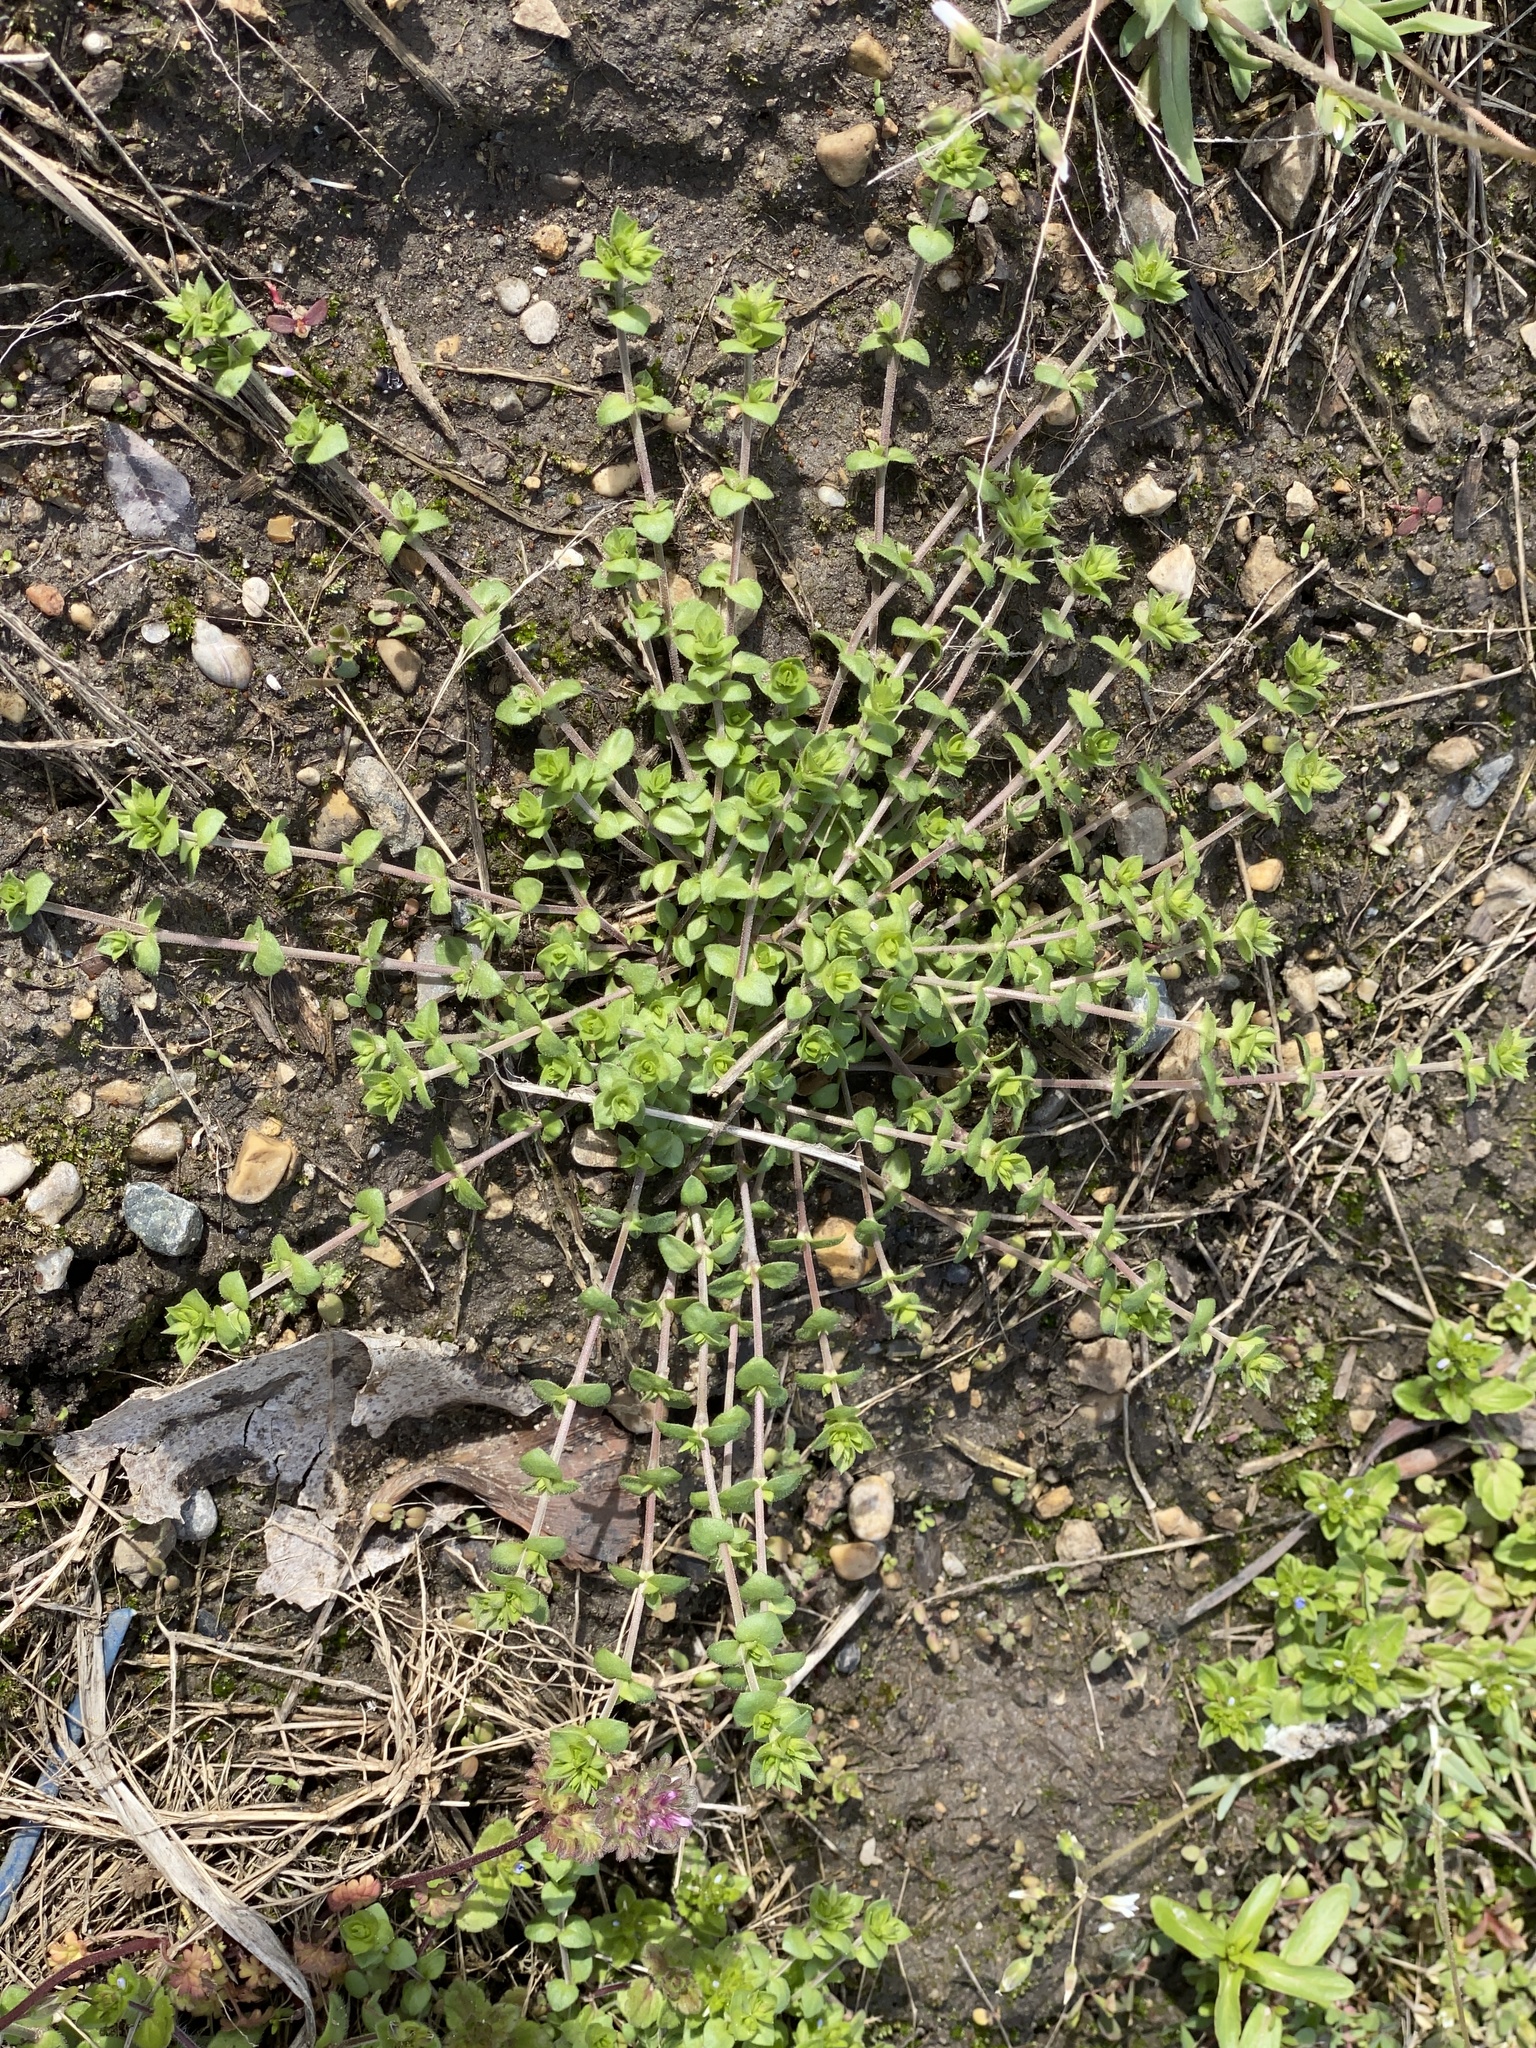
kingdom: Plantae
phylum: Tracheophyta
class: Magnoliopsida
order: Caryophyllales
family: Caryophyllaceae
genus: Arenaria
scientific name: Arenaria serpyllifolia
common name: Thyme-leaved sandwort
